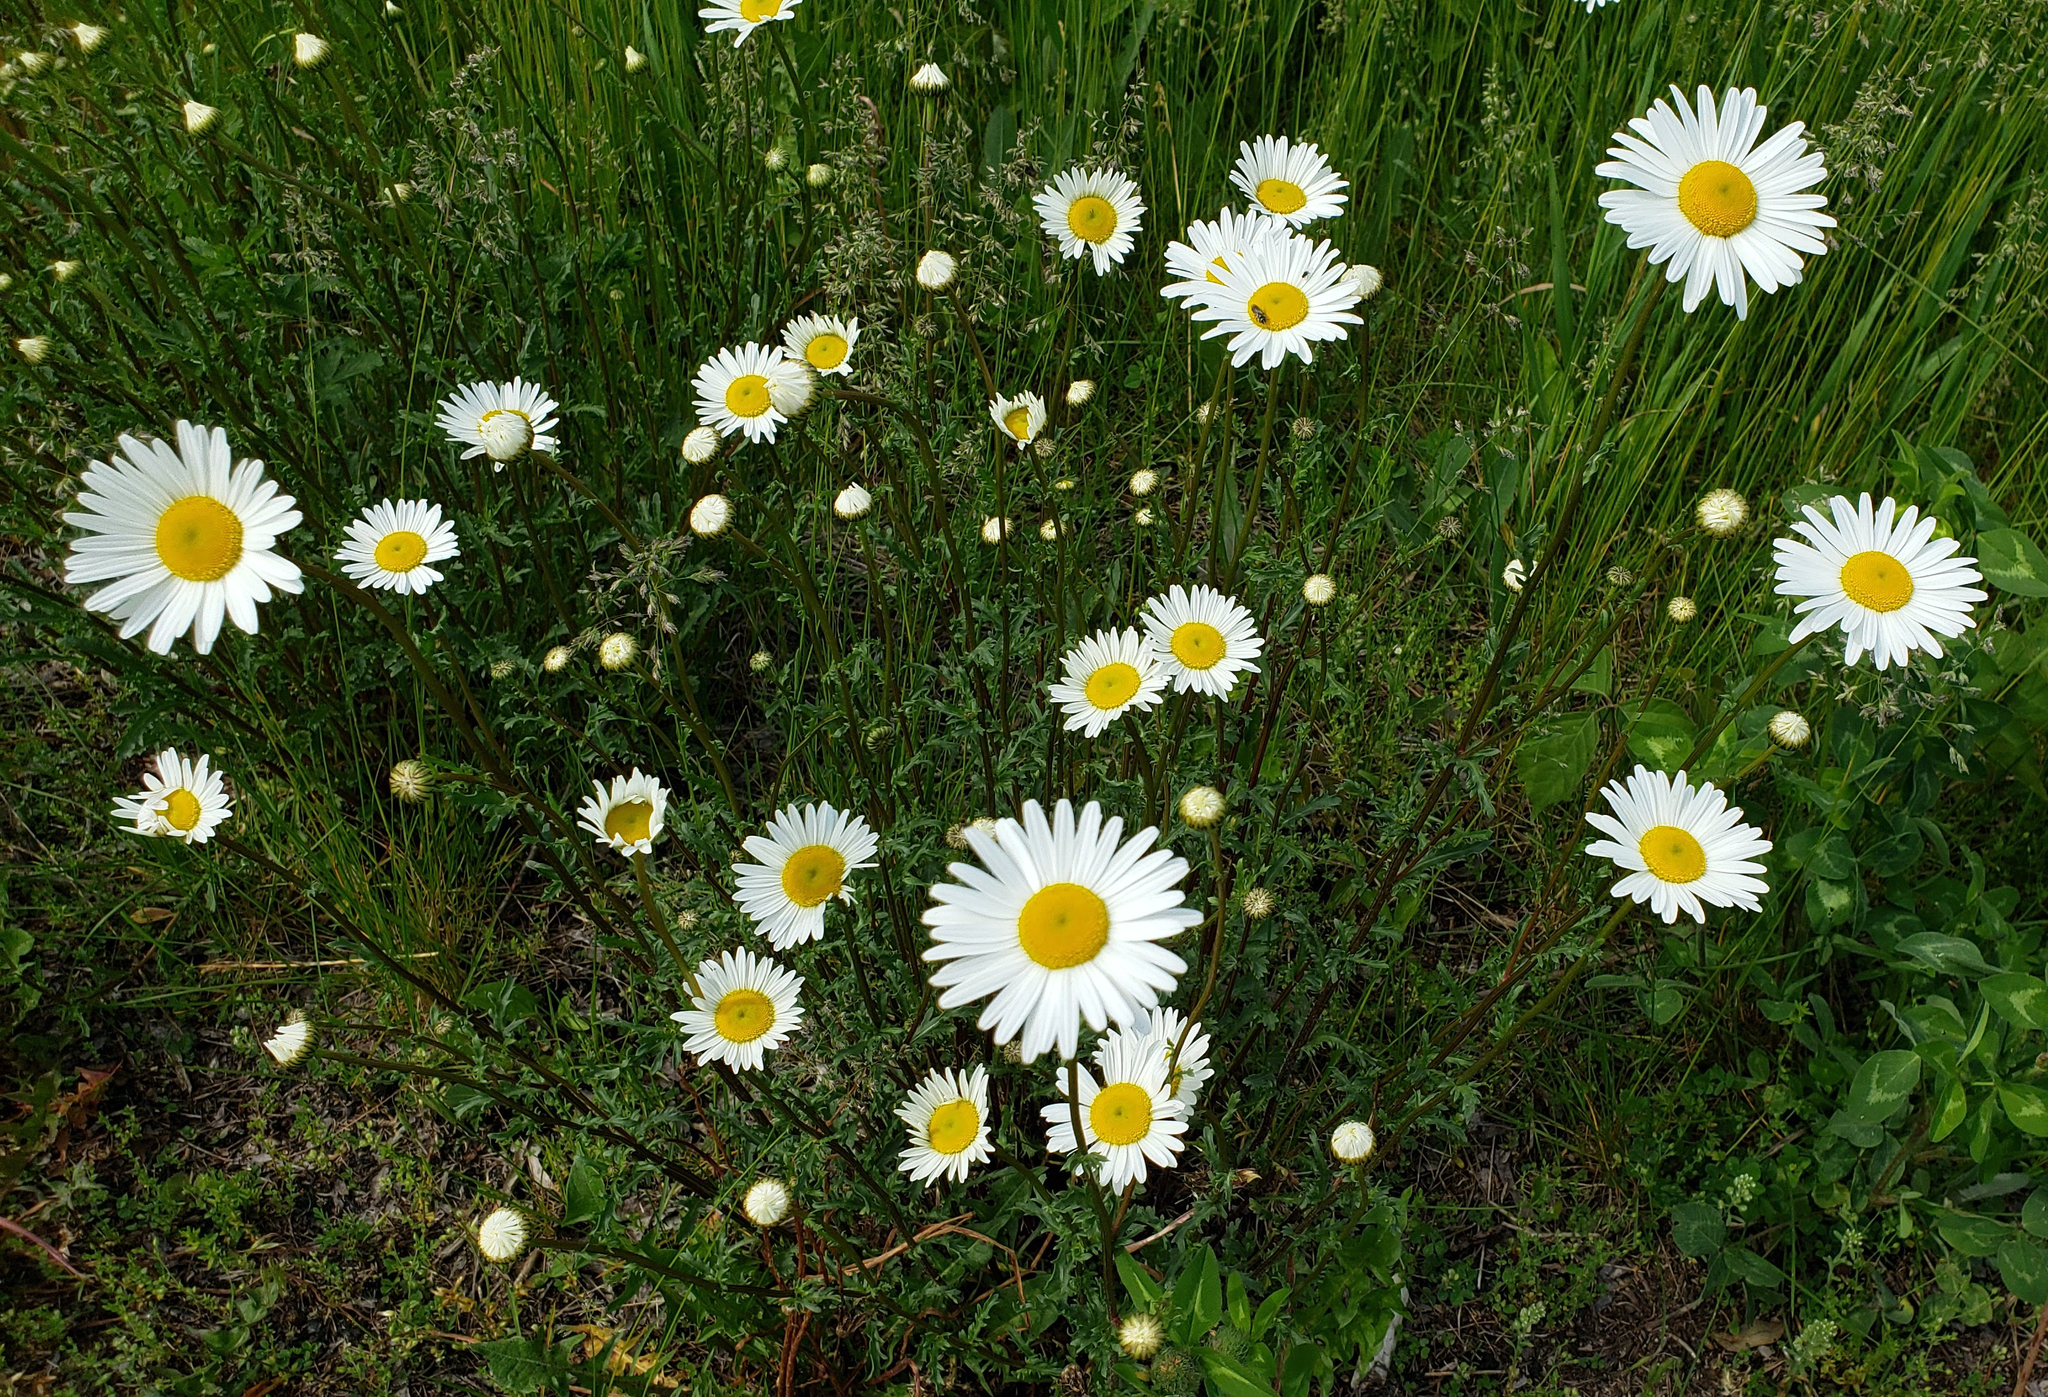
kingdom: Plantae
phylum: Tracheophyta
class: Magnoliopsida
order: Asterales
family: Asteraceae
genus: Leucanthemum
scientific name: Leucanthemum vulgare
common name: Oxeye daisy
